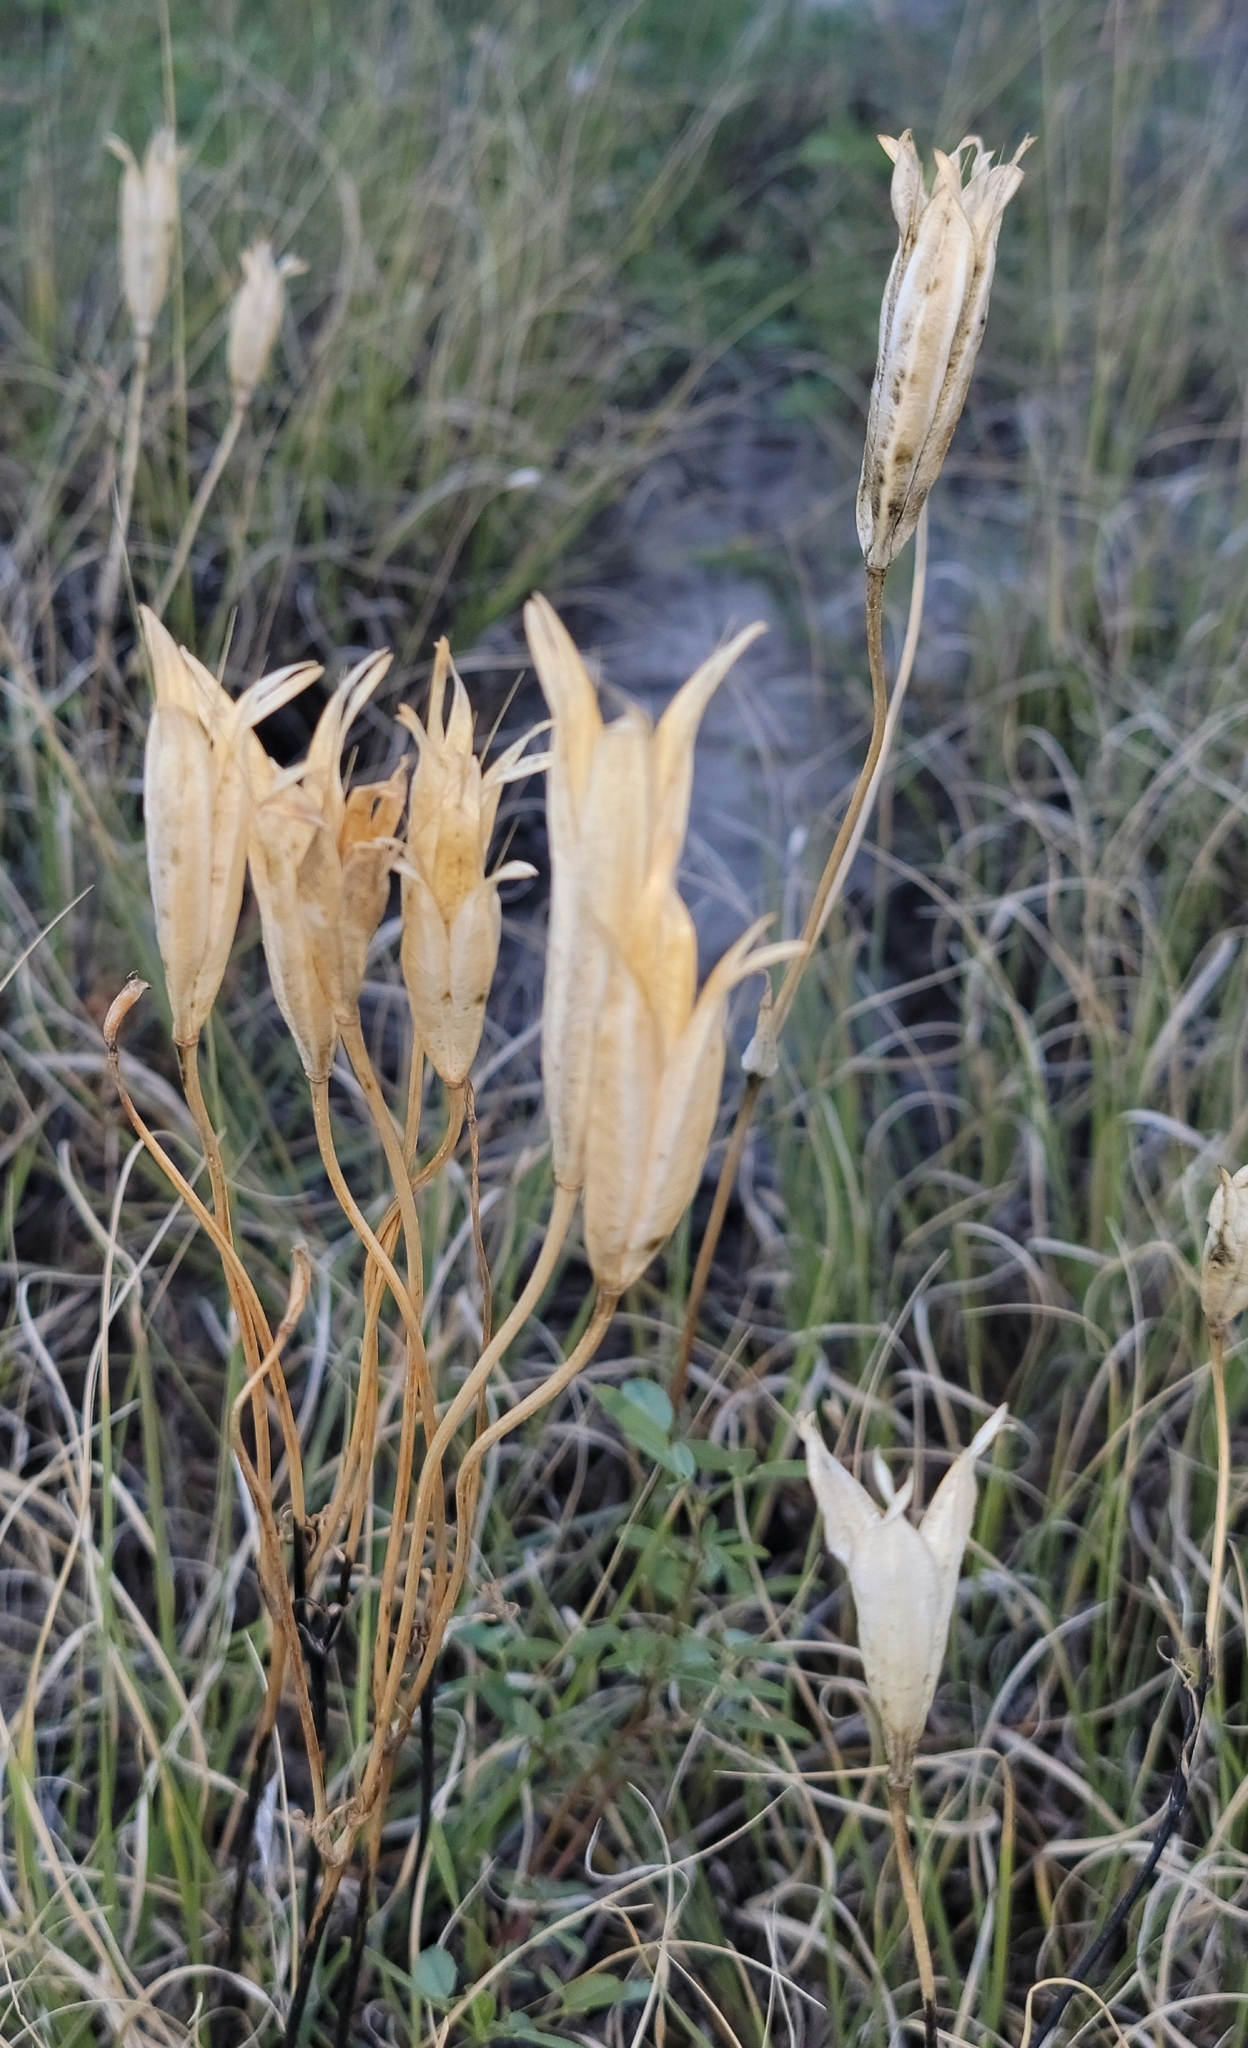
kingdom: Plantae
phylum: Tracheophyta
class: Liliopsida
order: Liliales
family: Liliaceae
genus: Calochortus
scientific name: Calochortus nuttallii
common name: Sego-lily
